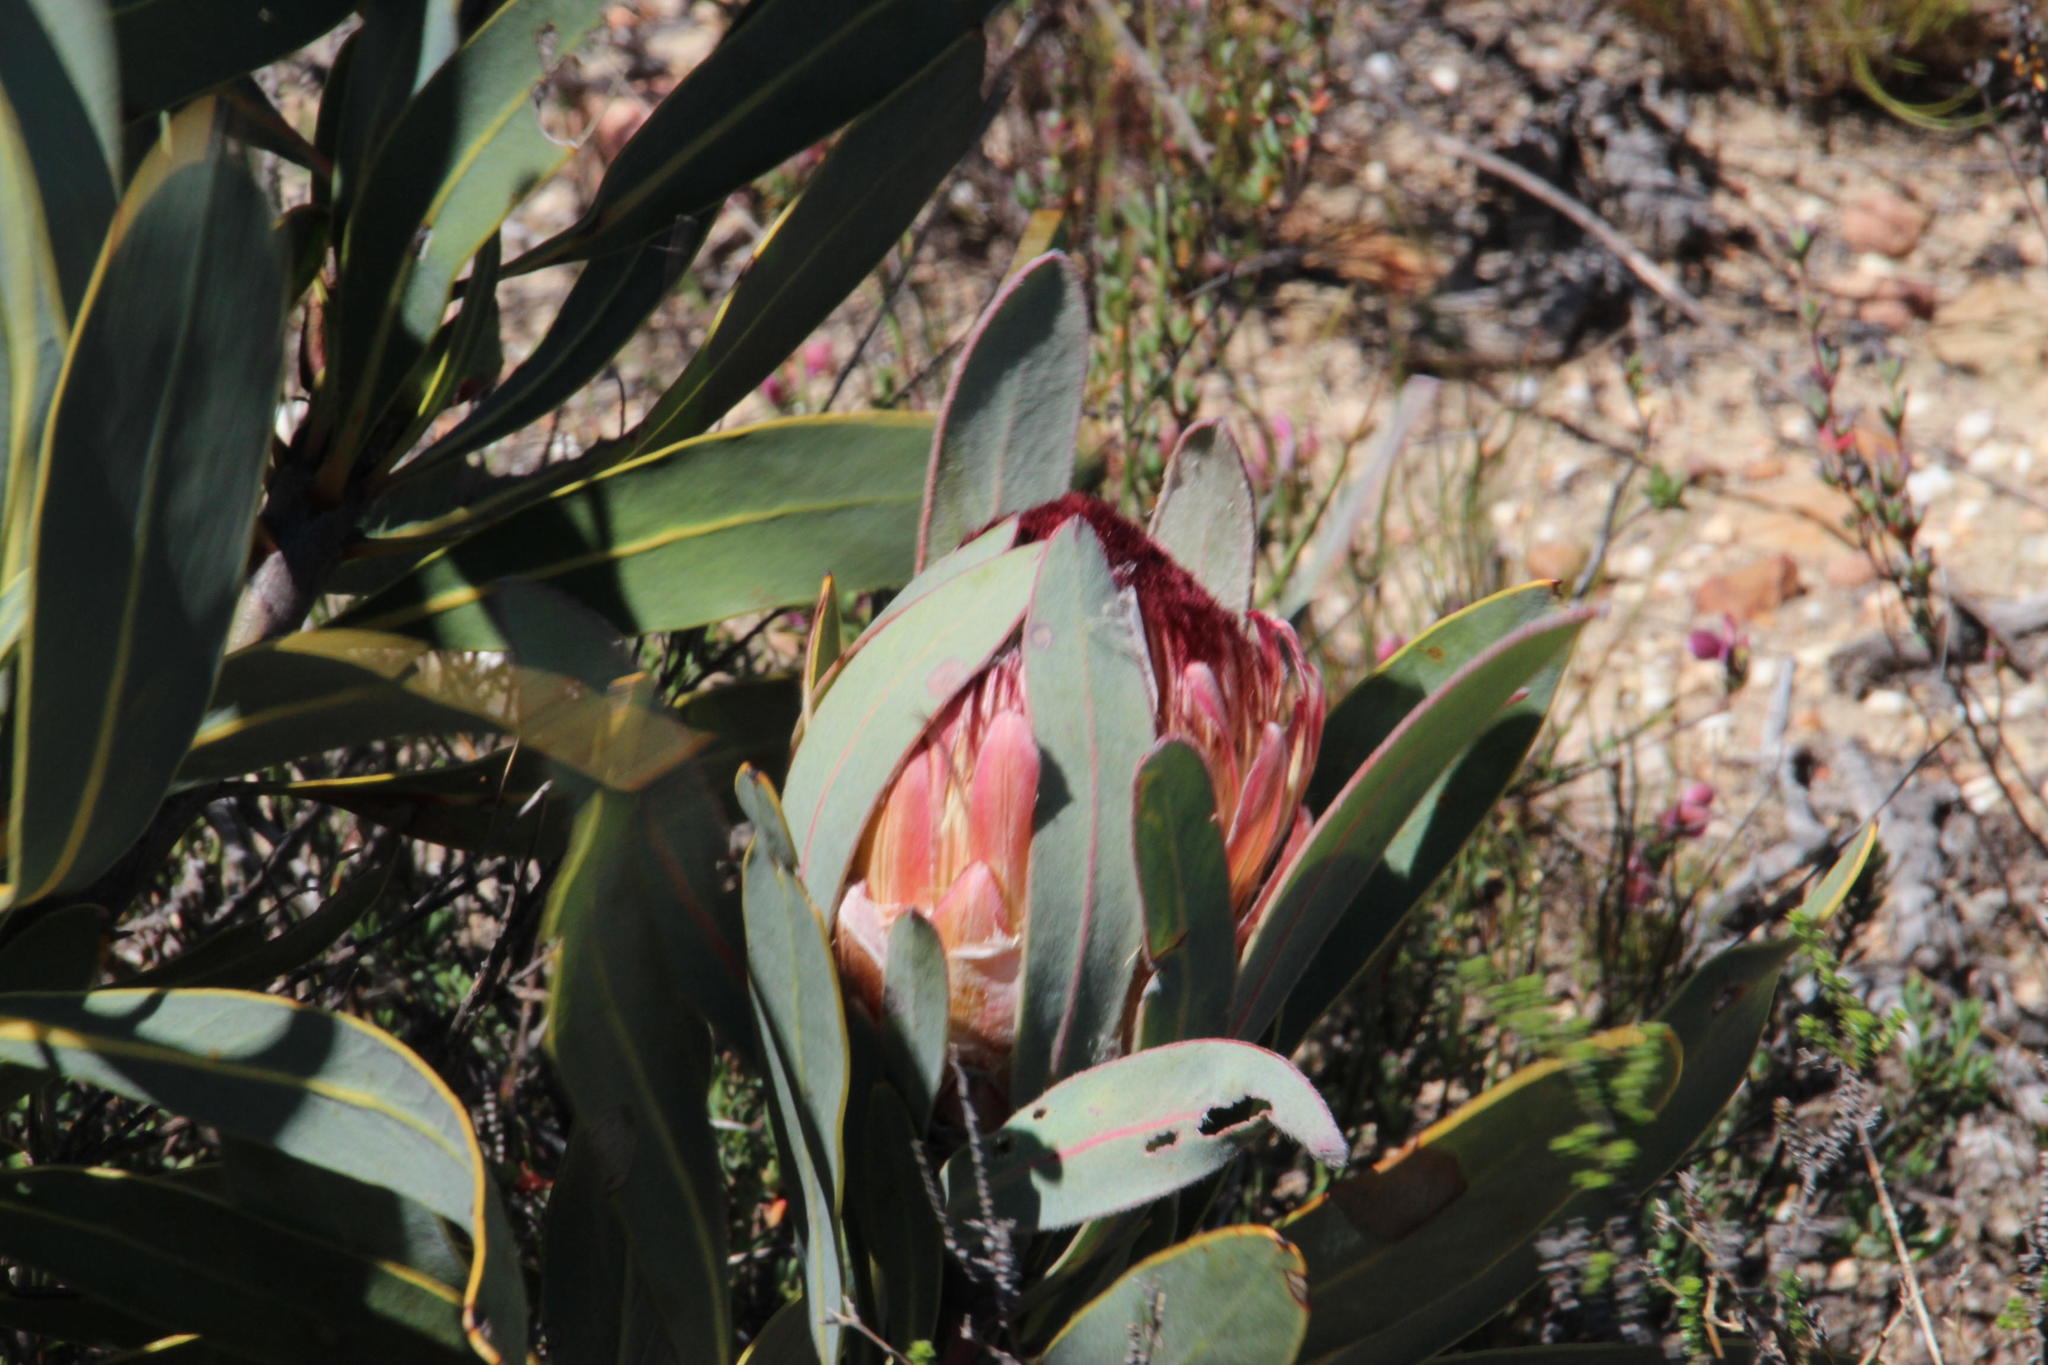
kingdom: Plantae
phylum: Tracheophyta
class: Magnoliopsida
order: Proteales
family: Proteaceae
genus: Protea
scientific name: Protea lorifolia
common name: Strap-leaved protea
